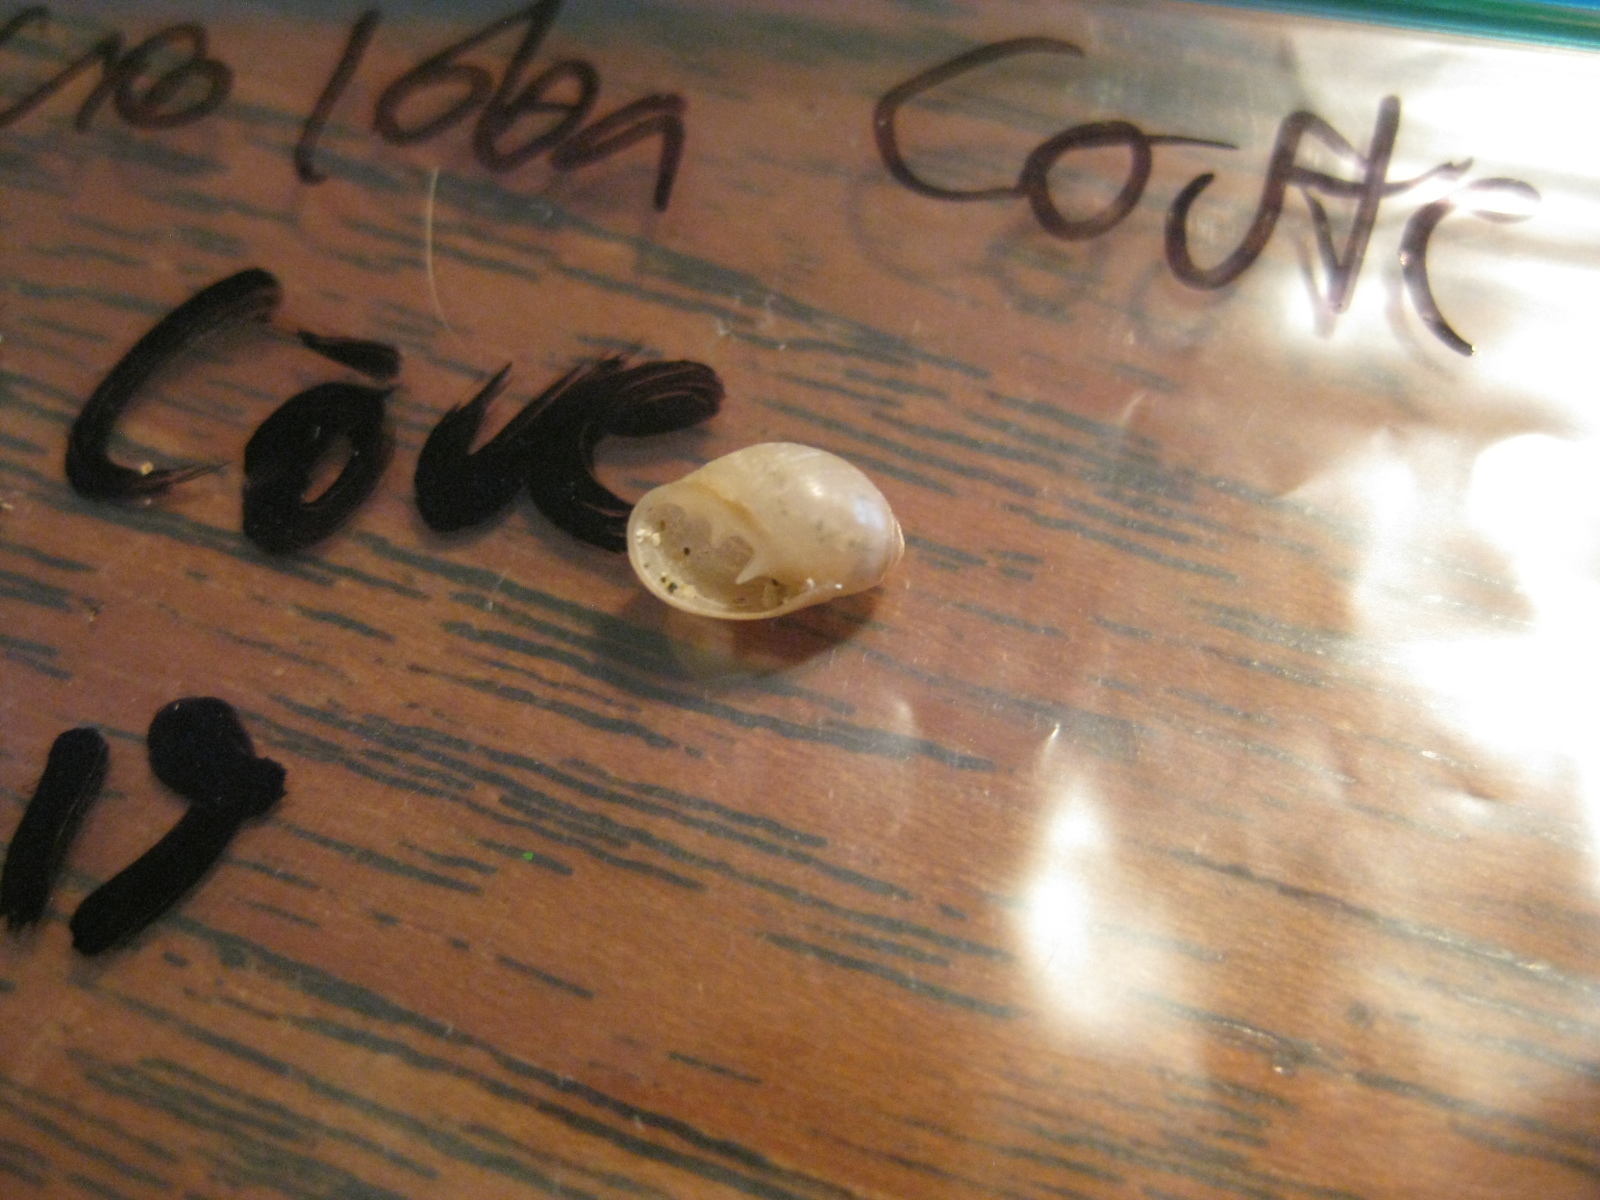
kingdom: Animalia
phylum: Mollusca
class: Gastropoda
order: Ellobiida
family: Ellobiidae
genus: Marinula
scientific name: Marinula filholi
